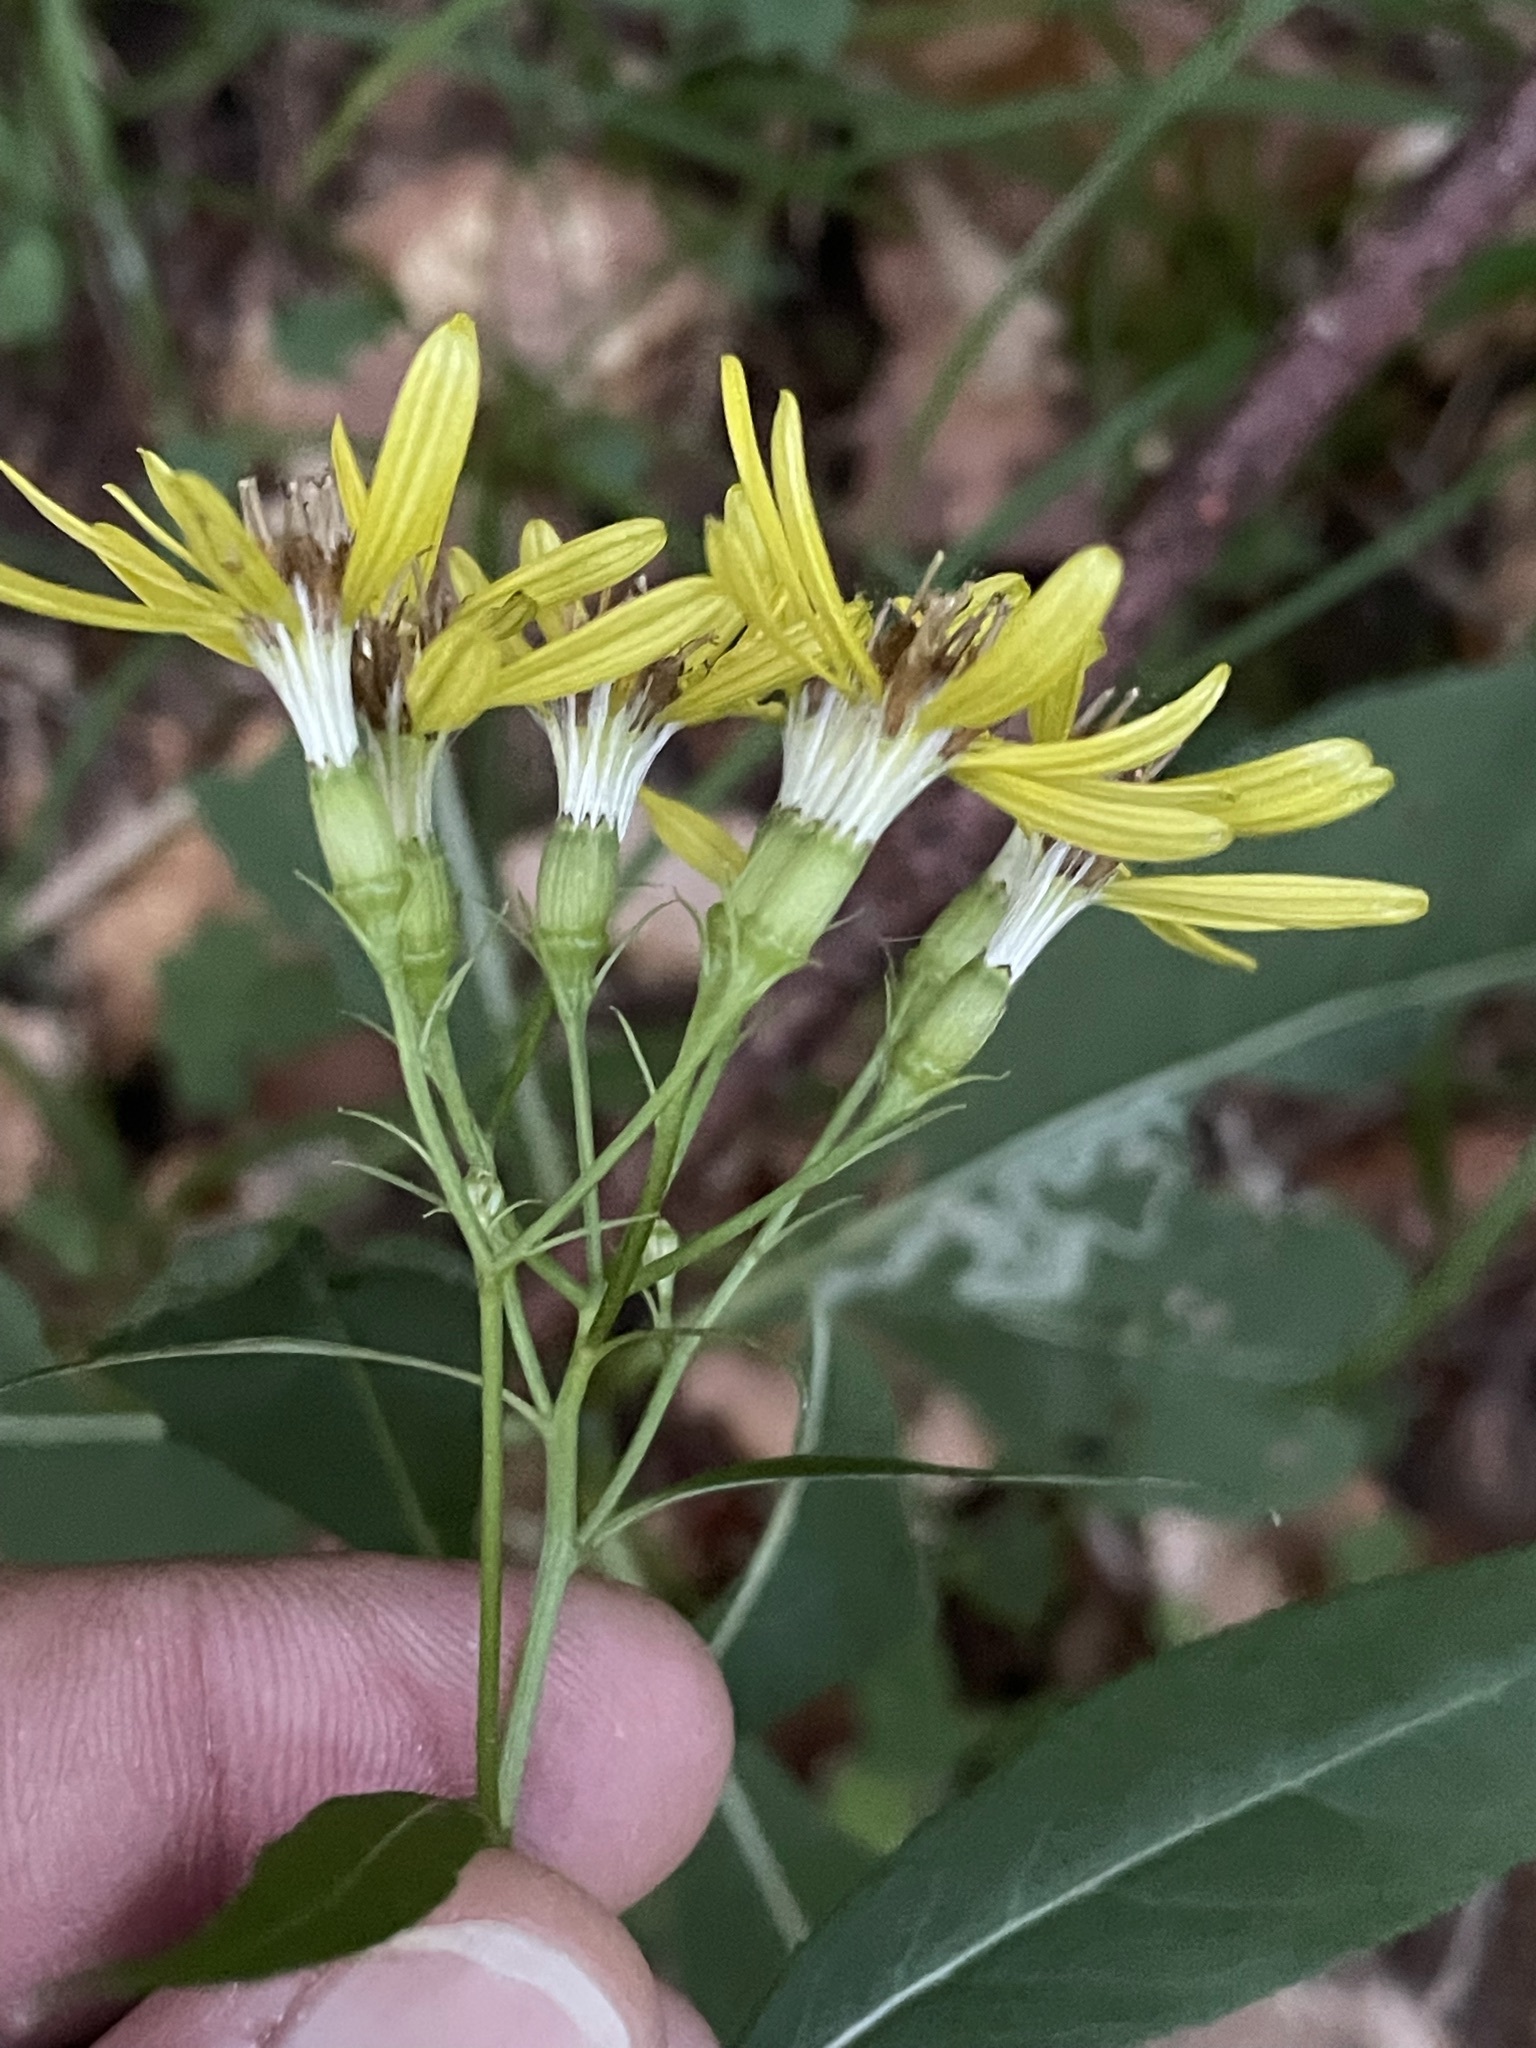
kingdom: Plantae
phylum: Tracheophyta
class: Magnoliopsida
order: Asterales
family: Asteraceae
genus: Senecio
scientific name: Senecio ovatus
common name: Wood ragwort
